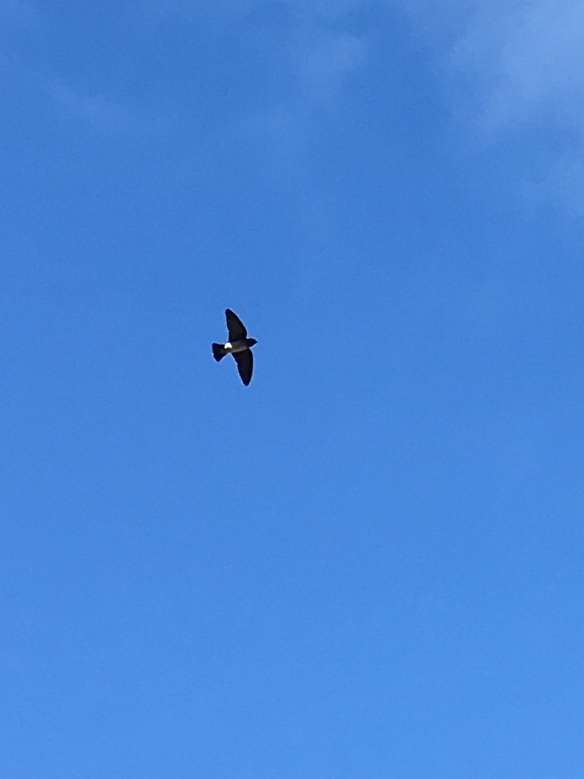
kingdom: Animalia
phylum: Chordata
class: Aves
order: Passeriformes
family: Hirundinidae
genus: Petrochelidon
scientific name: Petrochelidon pyrrhonota
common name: American cliff swallow
